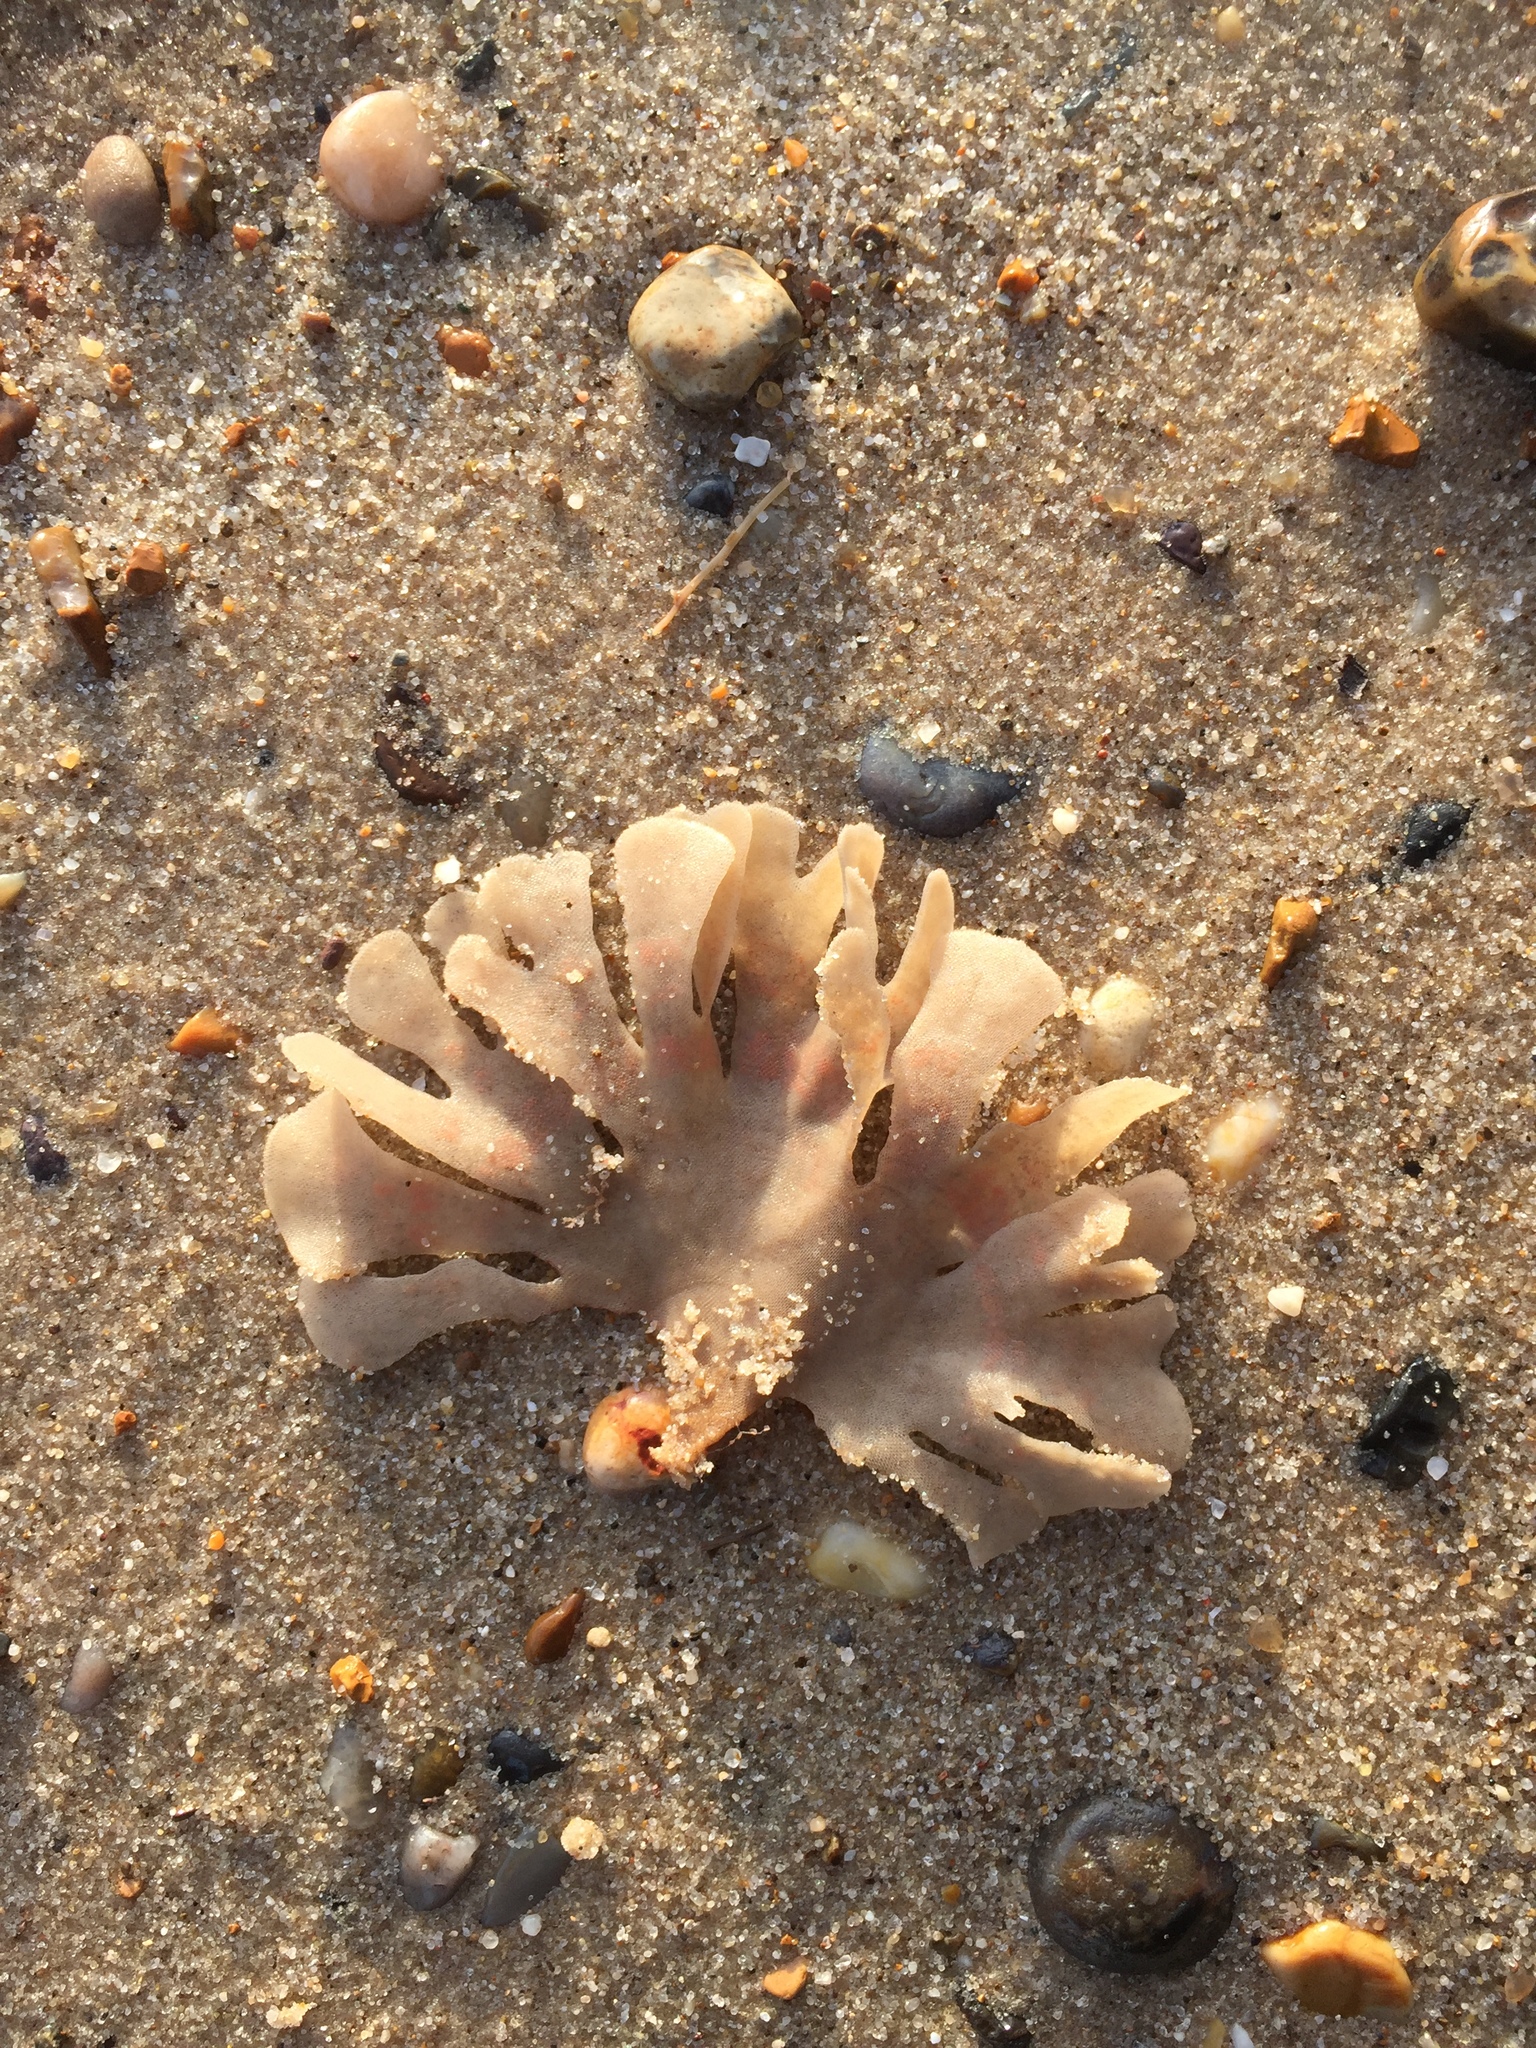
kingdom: Animalia
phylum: Bryozoa
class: Gymnolaemata
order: Cheilostomatida
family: Flustridae
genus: Flustra
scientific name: Flustra foliacea
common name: Hornwrack
